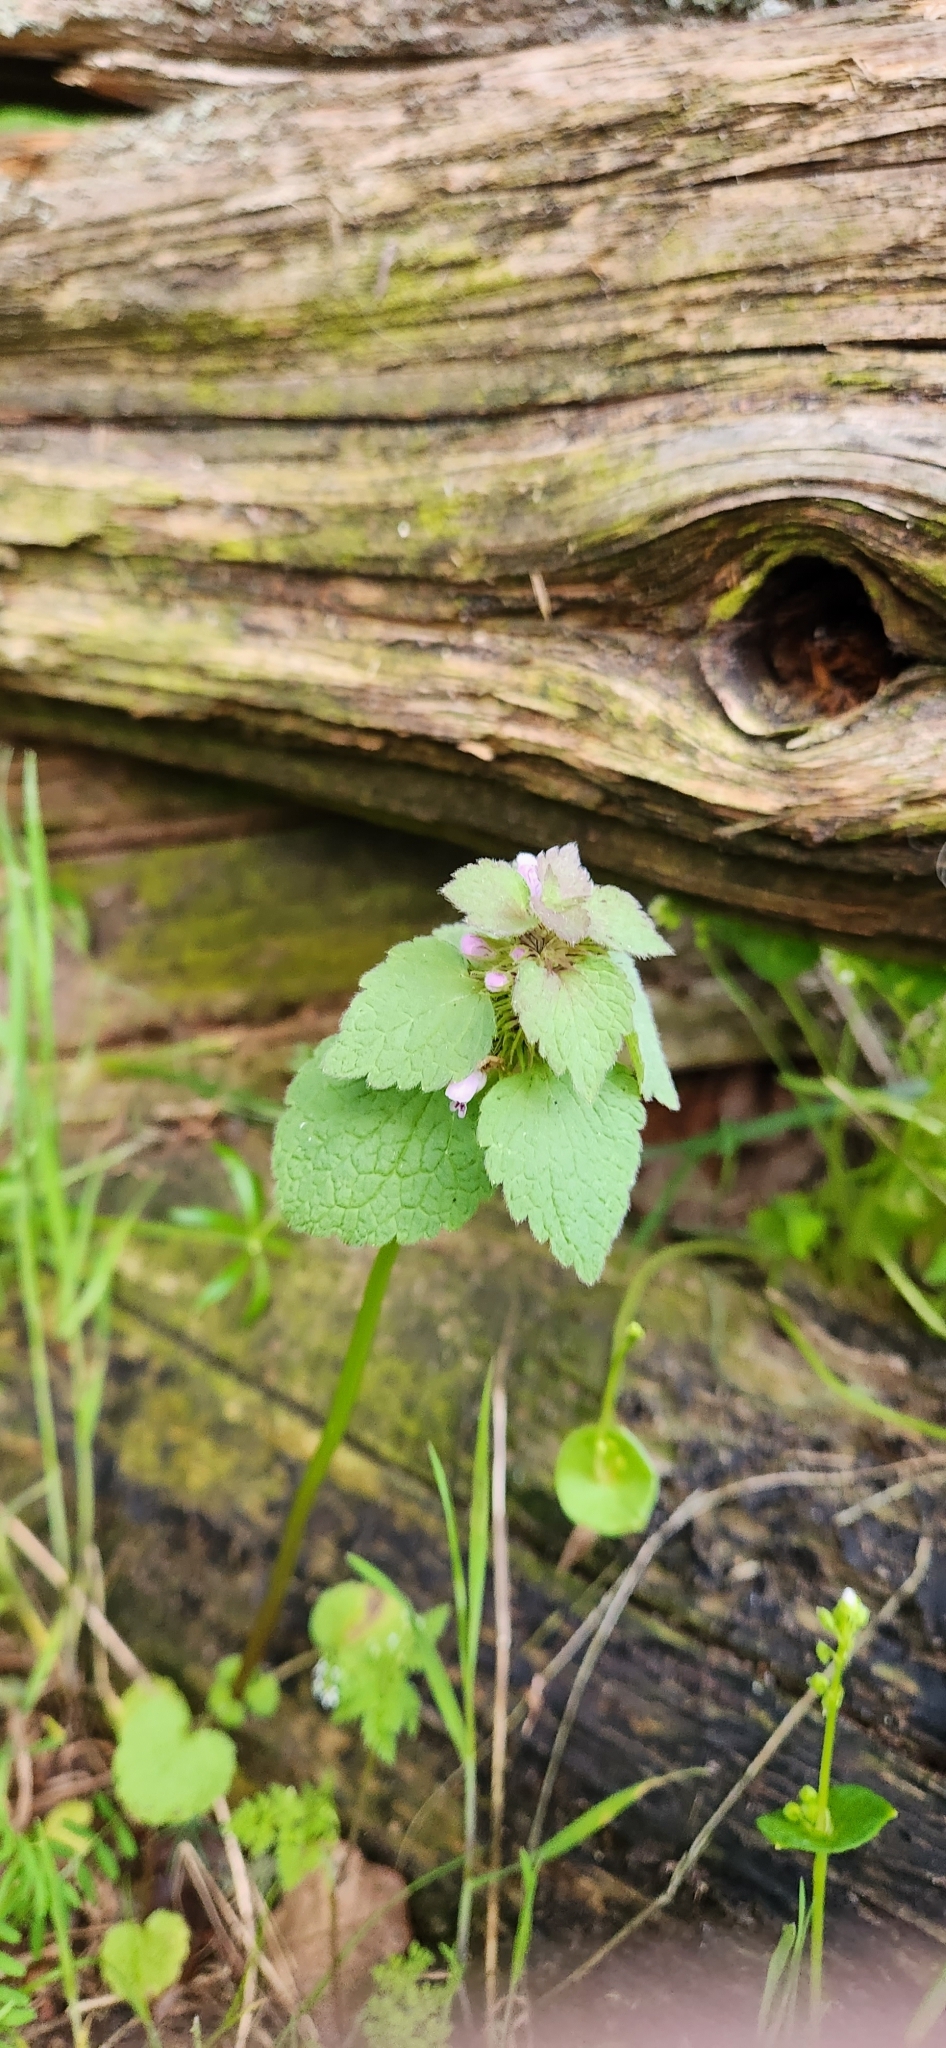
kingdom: Plantae
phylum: Tracheophyta
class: Magnoliopsida
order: Lamiales
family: Lamiaceae
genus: Lamium
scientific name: Lamium purpureum
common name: Red dead-nettle
